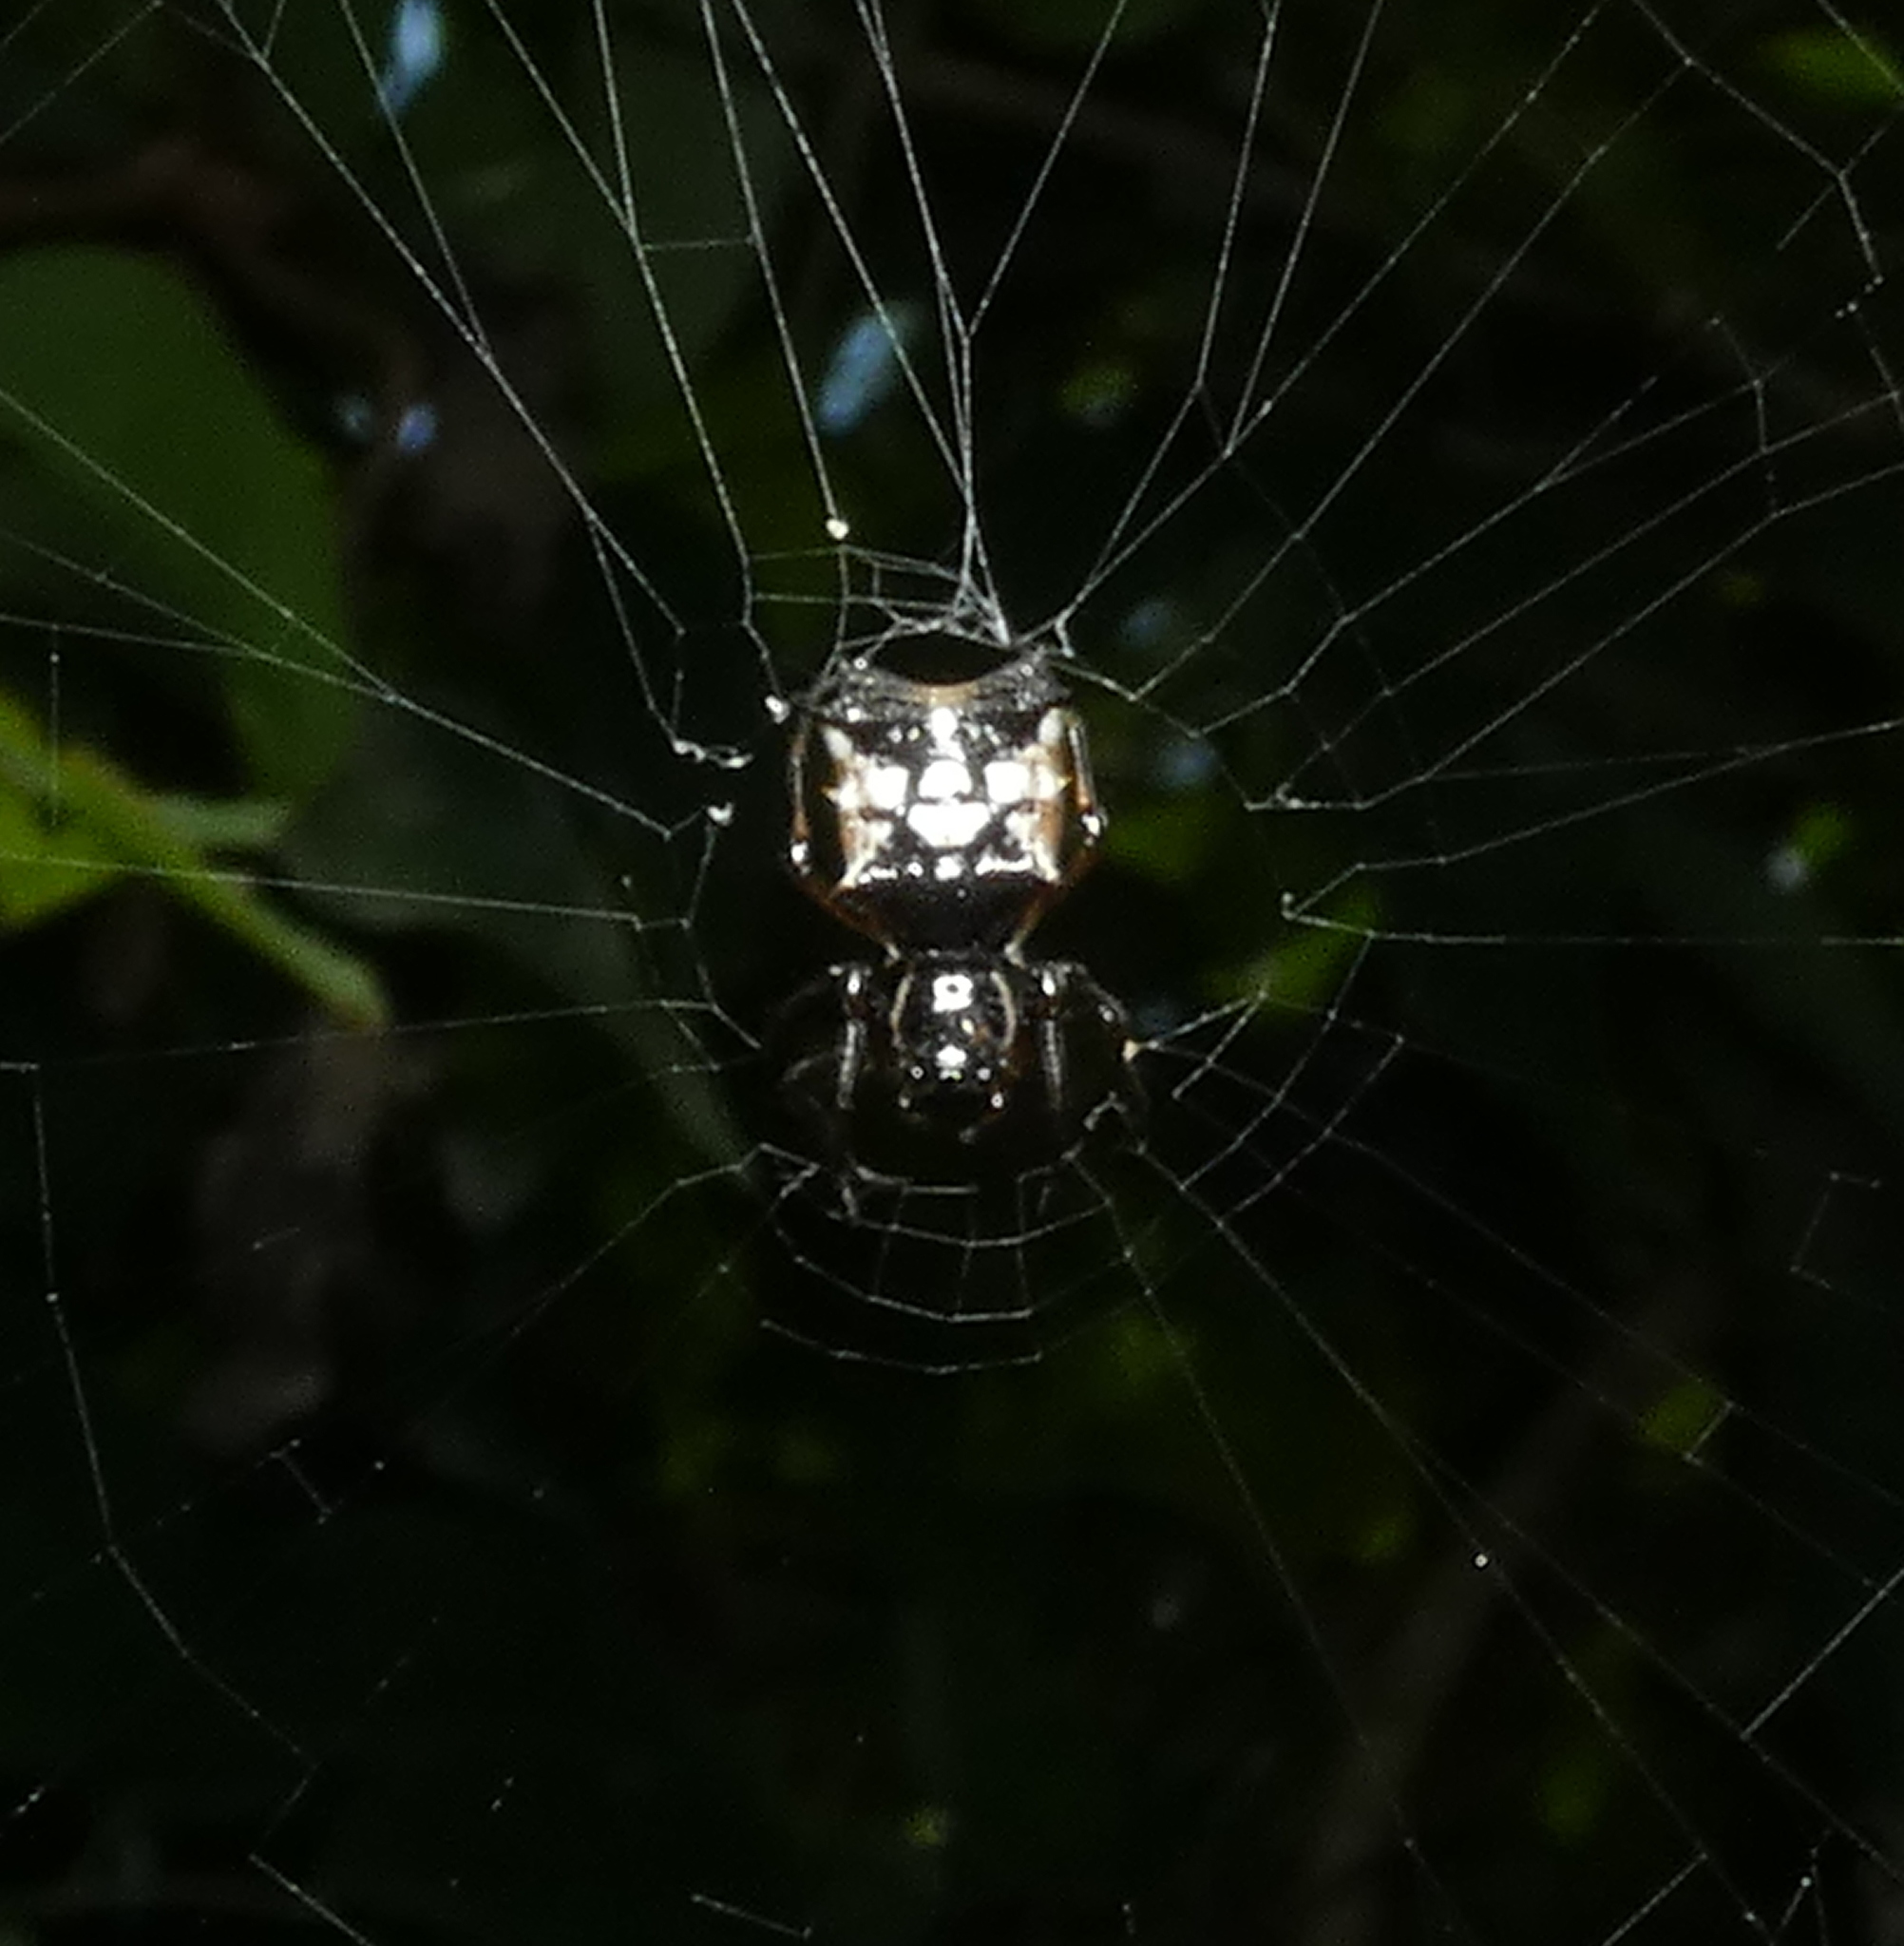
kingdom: Animalia
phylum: Arthropoda
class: Arachnida
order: Araneae
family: Araneidae
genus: Micrathena
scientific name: Micrathena picta
